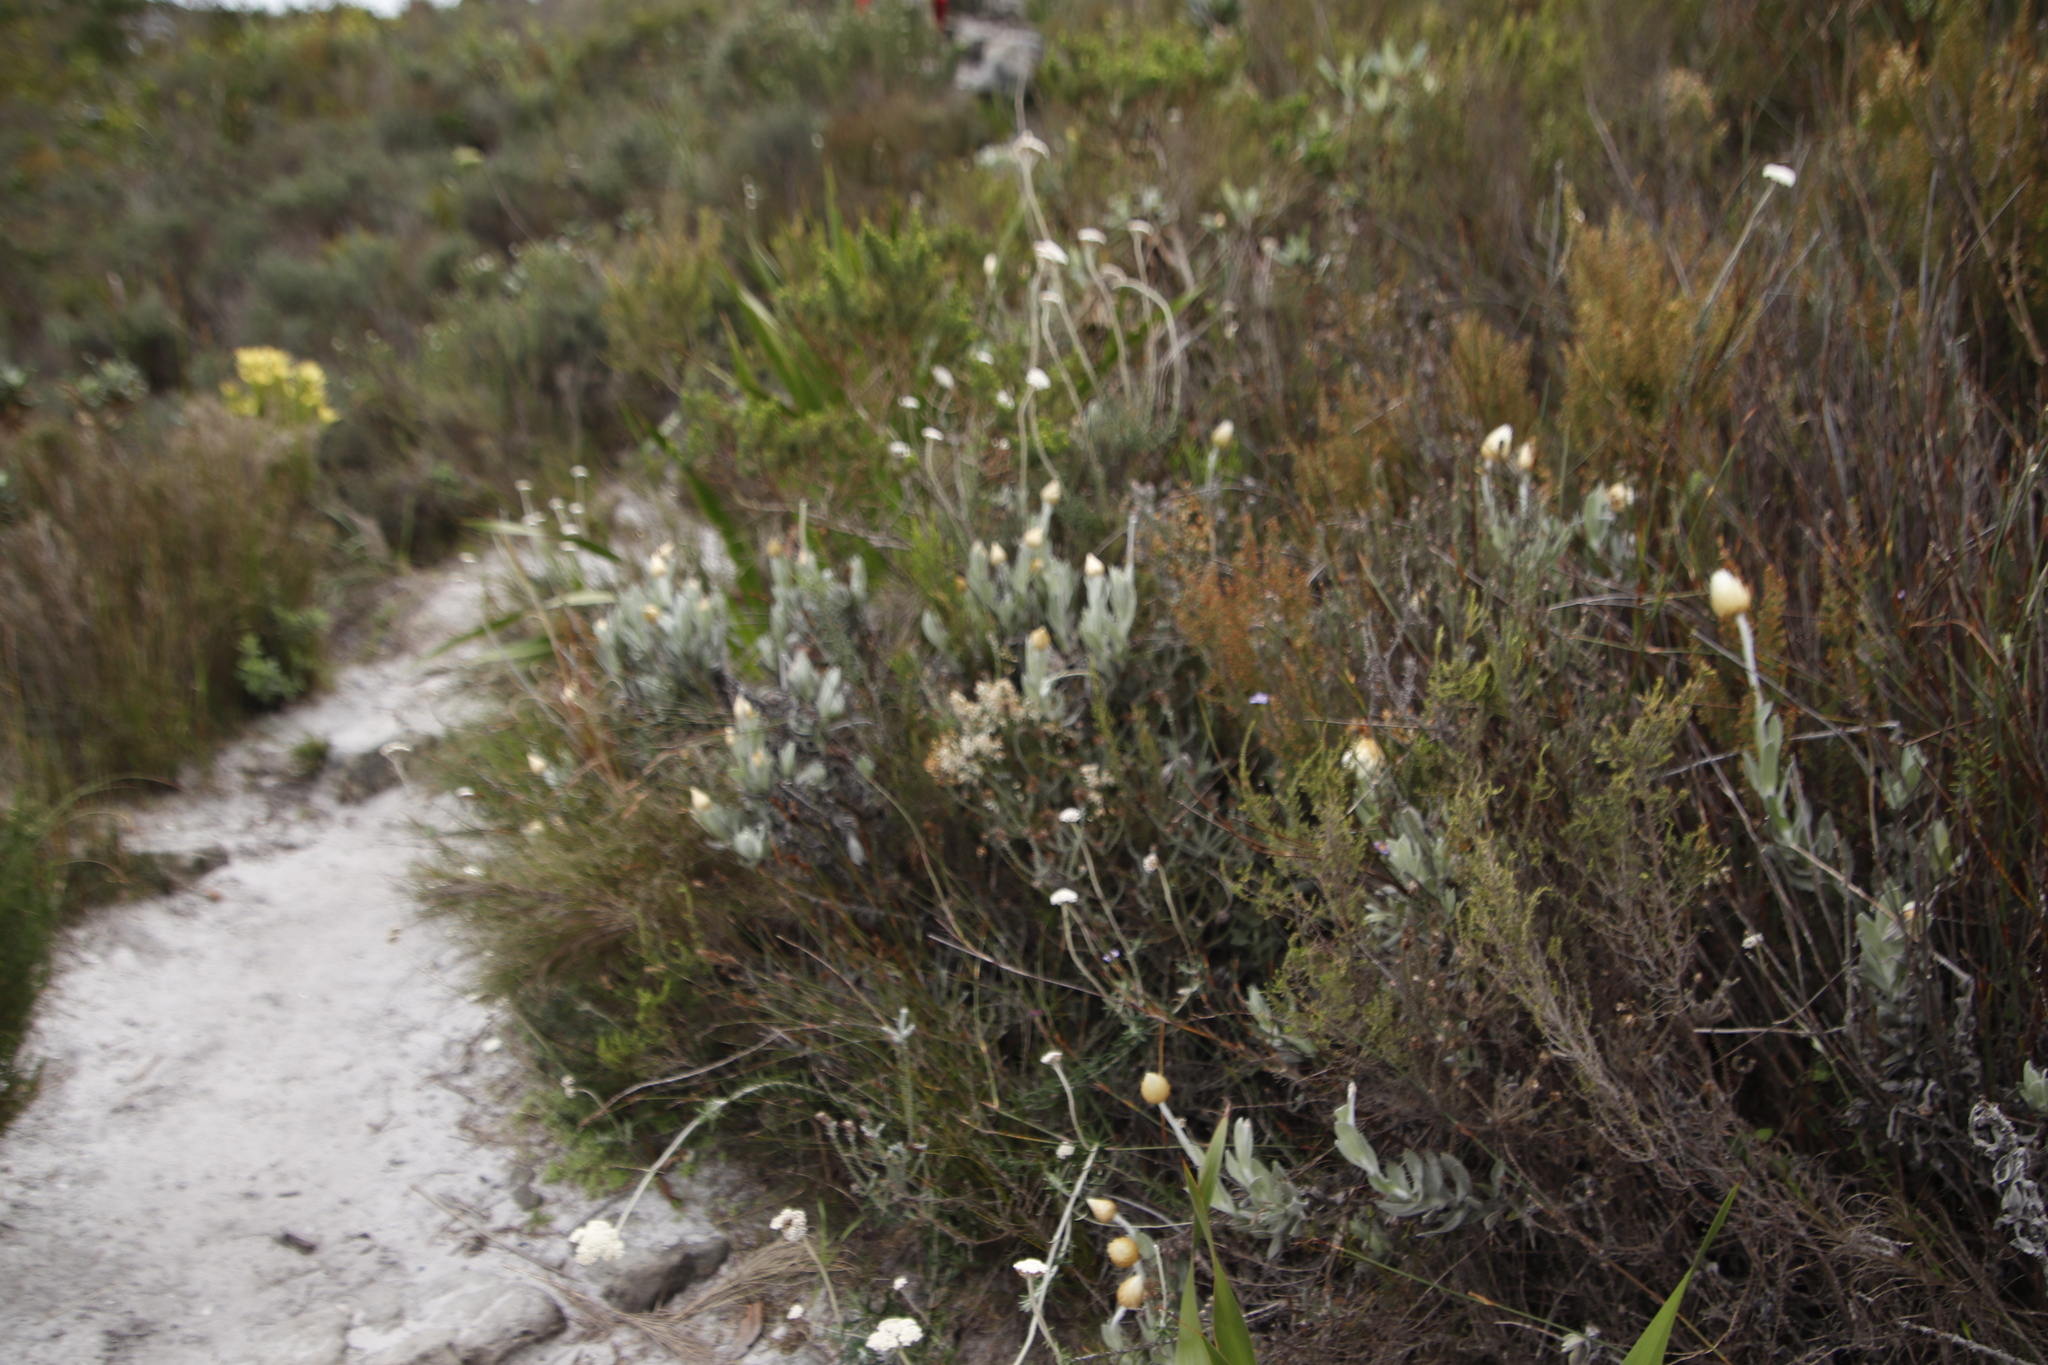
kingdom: Plantae
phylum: Tracheophyta
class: Magnoliopsida
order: Asterales
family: Asteraceae
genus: Syncarpha
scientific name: Syncarpha speciosissima
